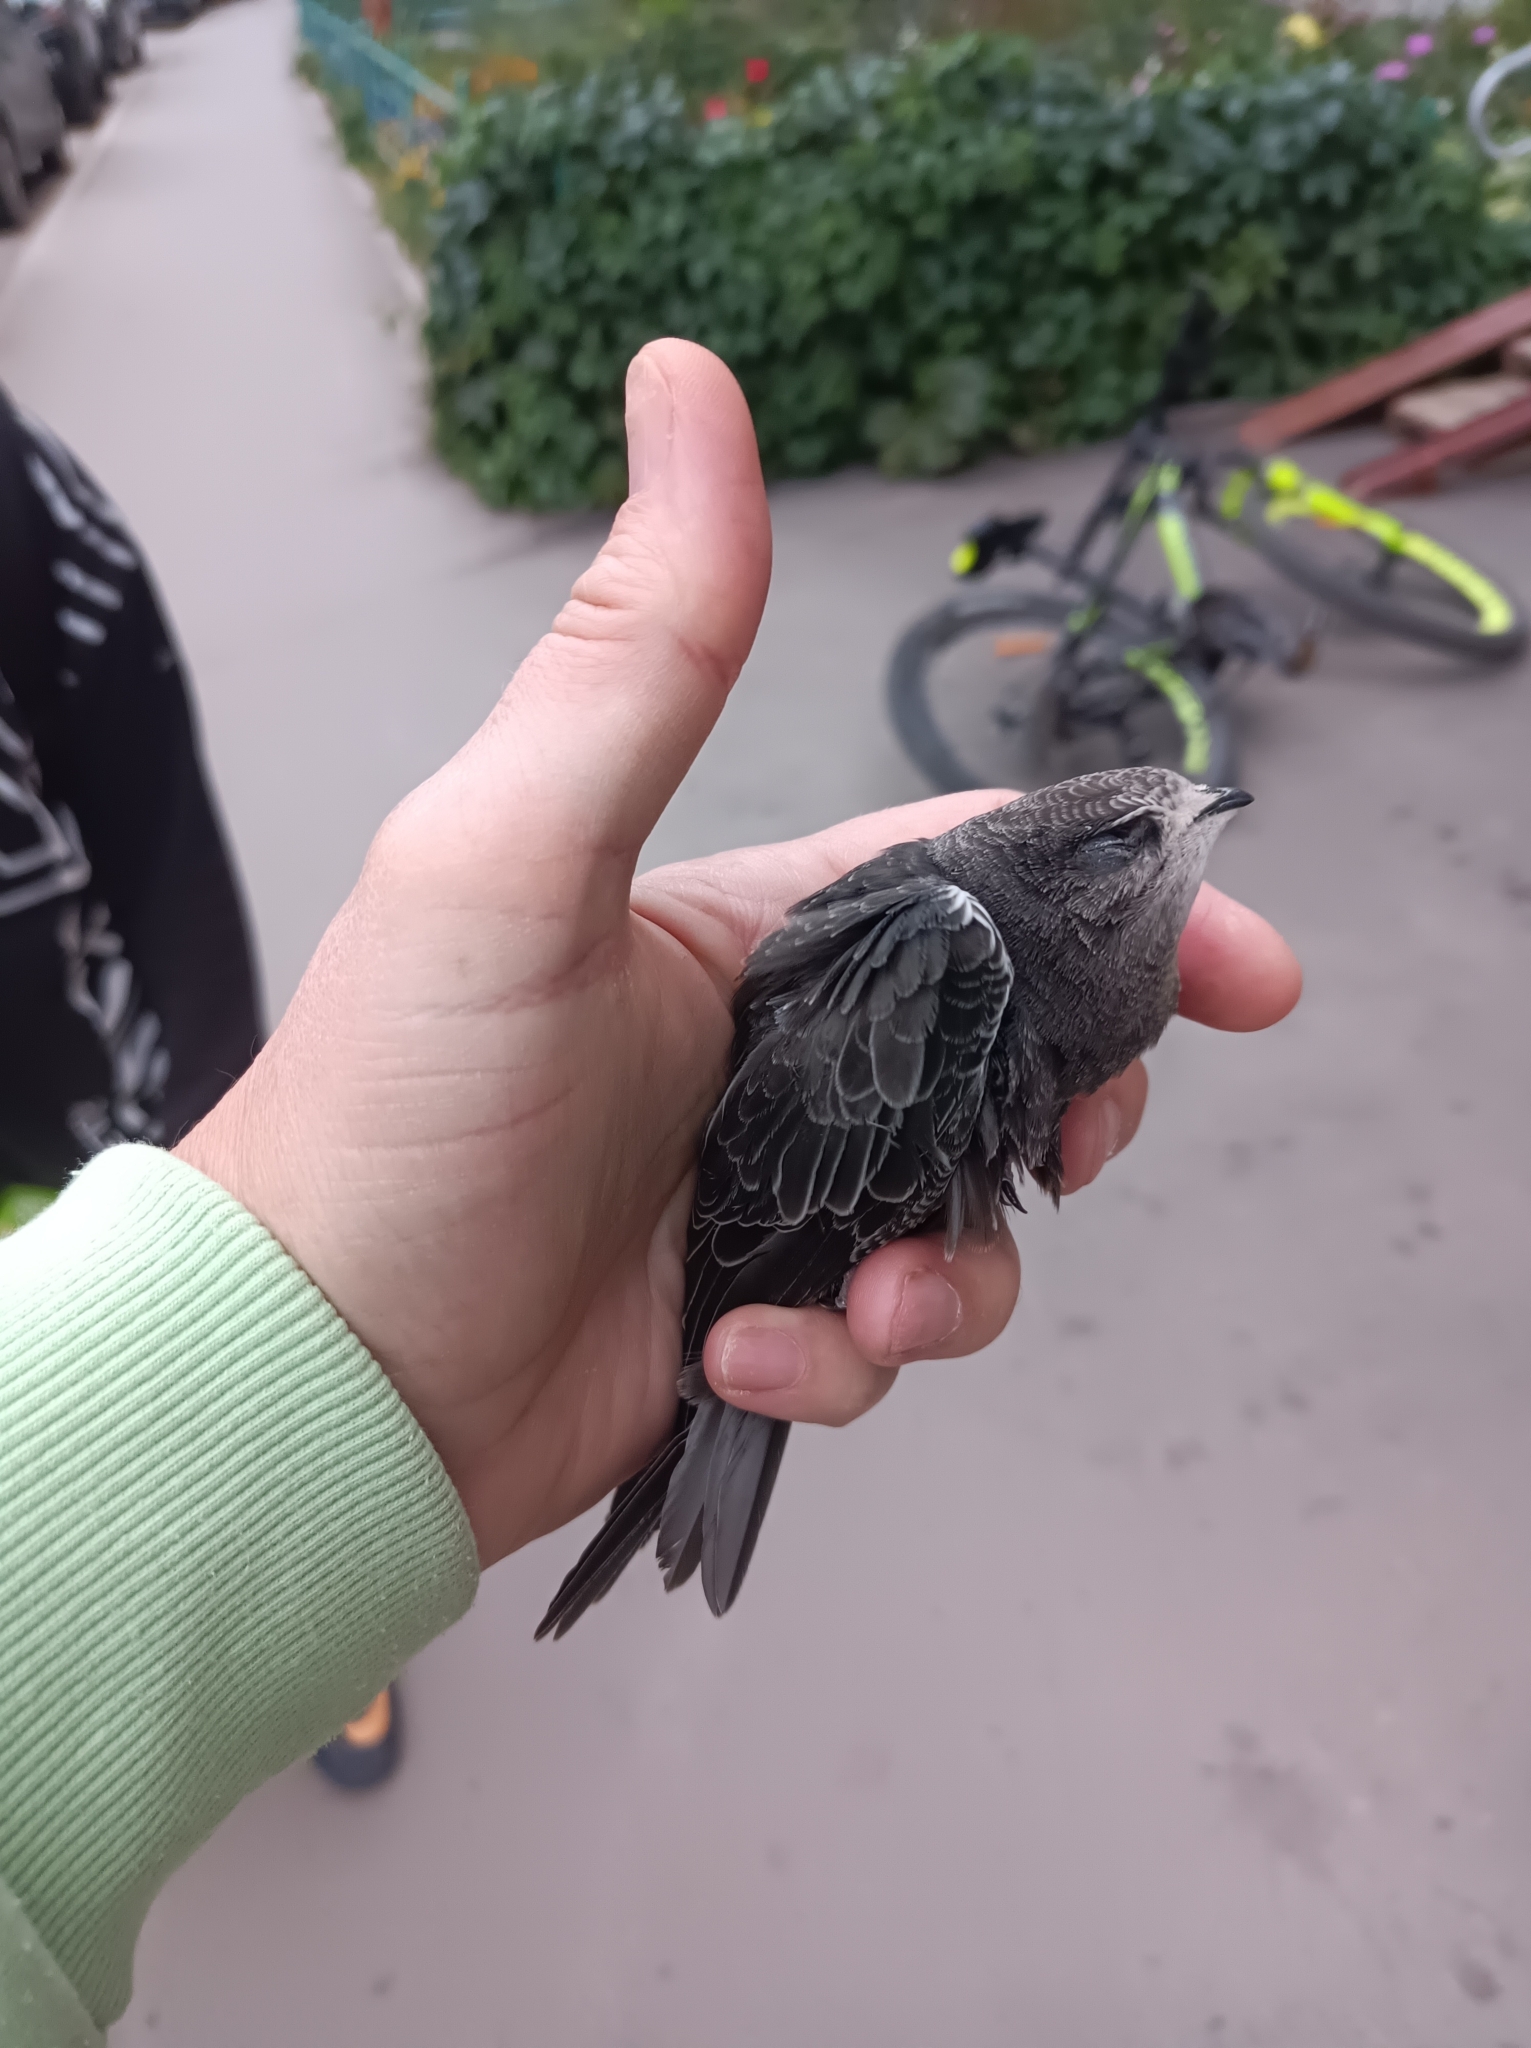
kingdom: Animalia
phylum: Chordata
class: Aves
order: Apodiformes
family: Apodidae
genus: Apus
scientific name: Apus apus
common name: Common swift
